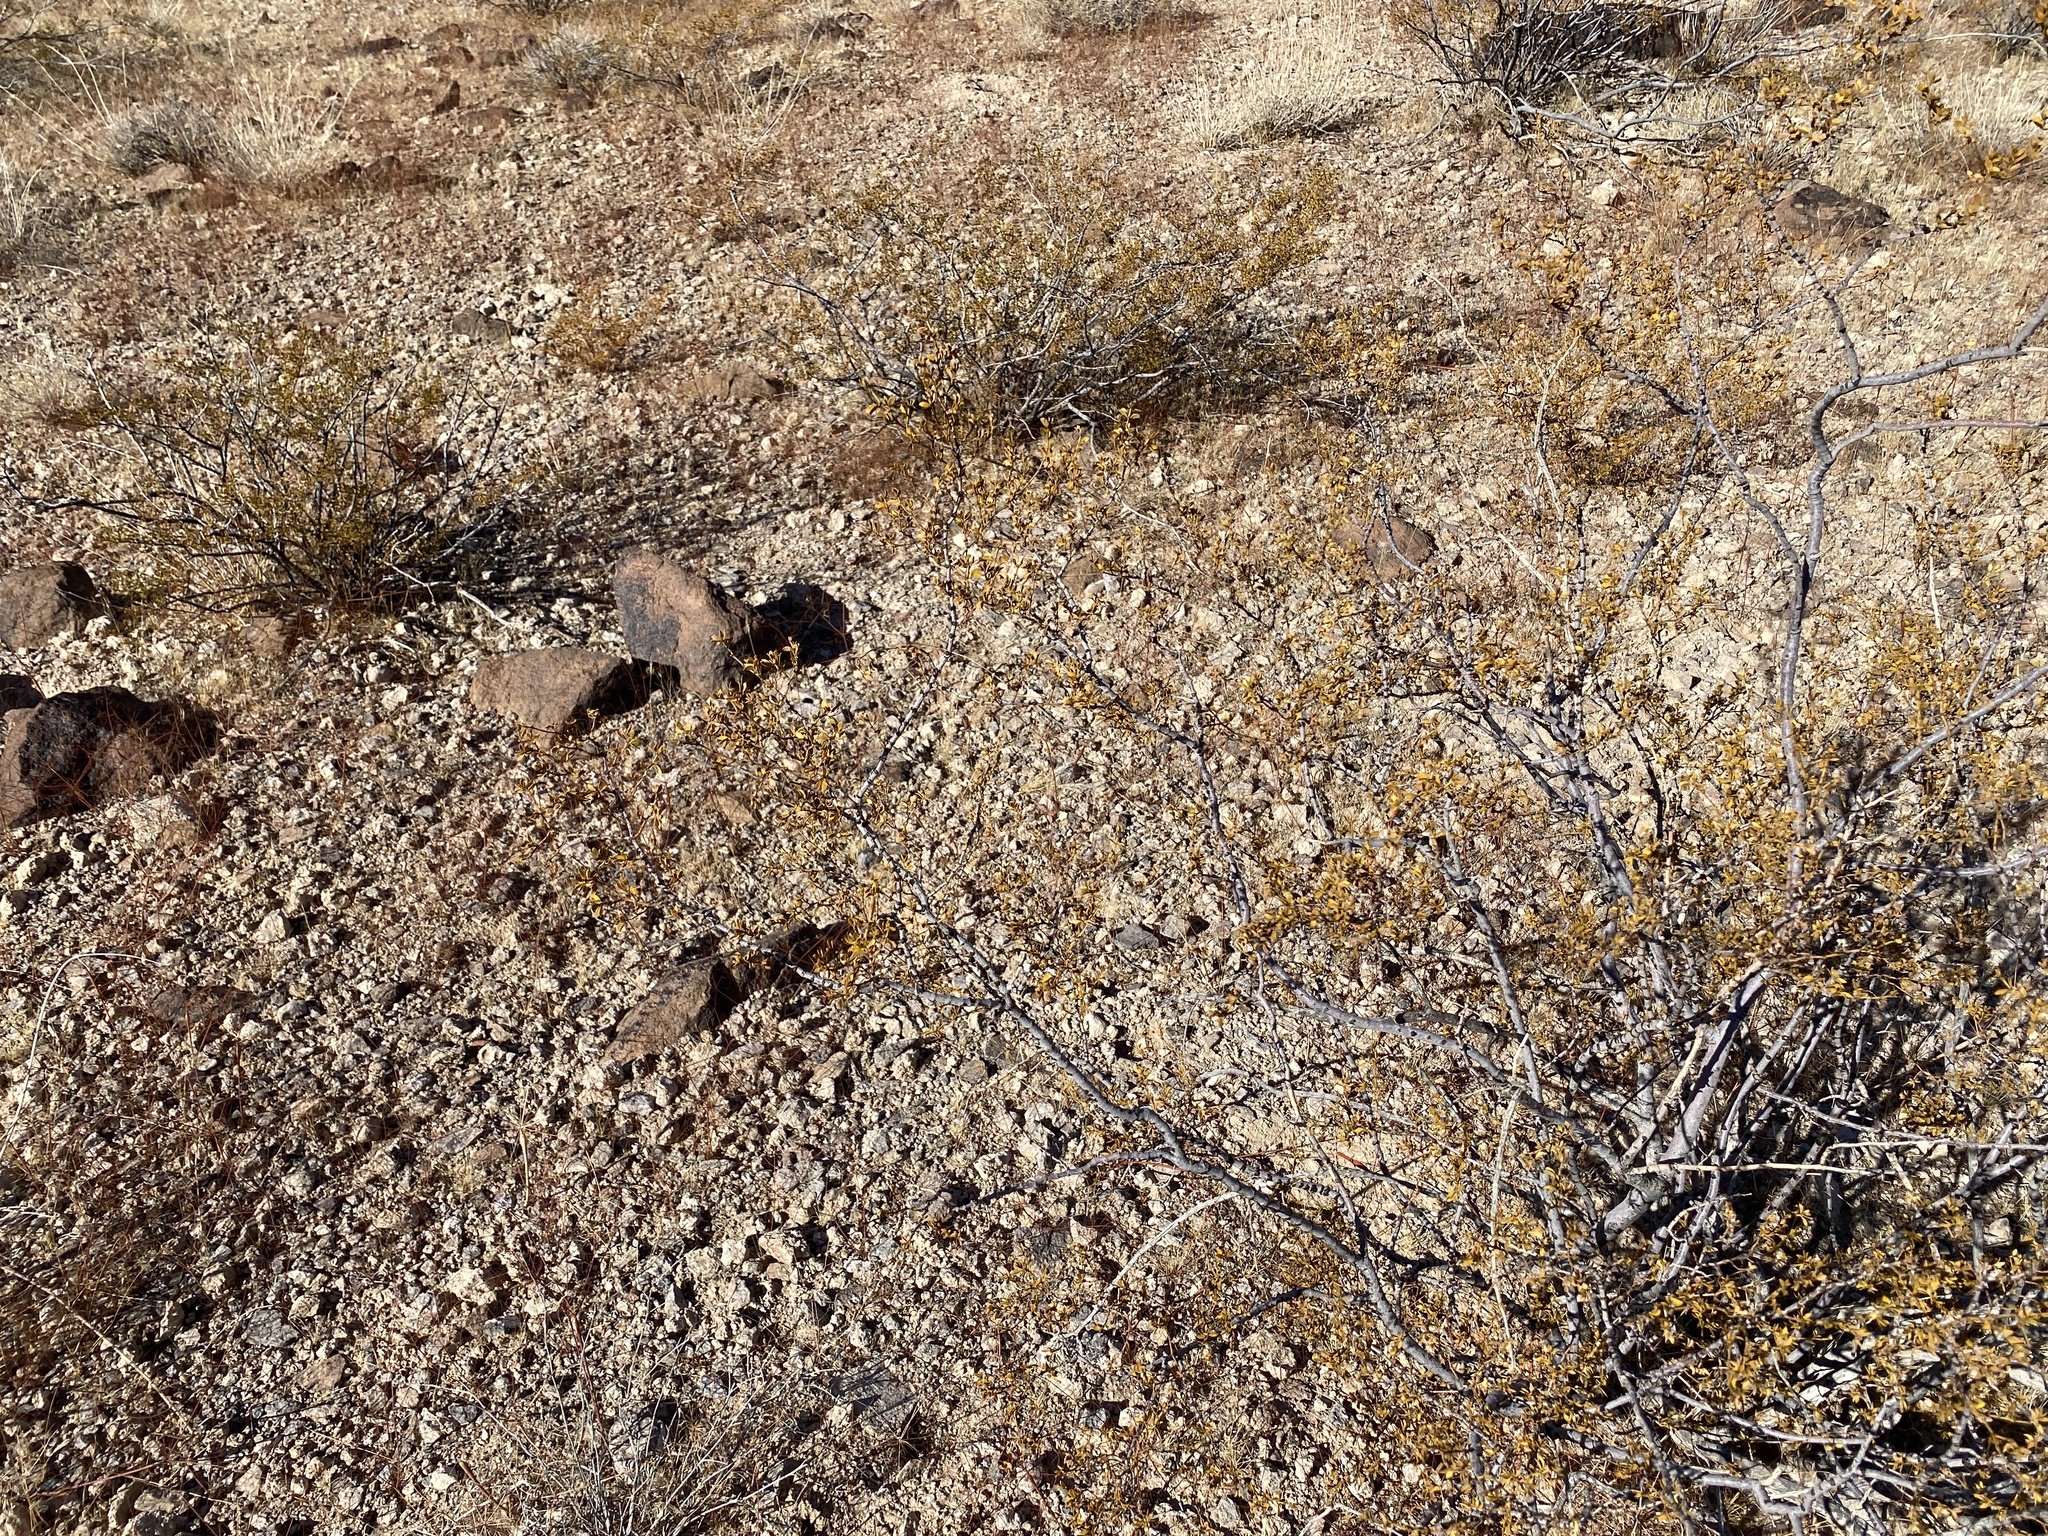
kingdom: Plantae
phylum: Tracheophyta
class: Magnoliopsida
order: Zygophyllales
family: Zygophyllaceae
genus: Larrea
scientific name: Larrea tridentata
